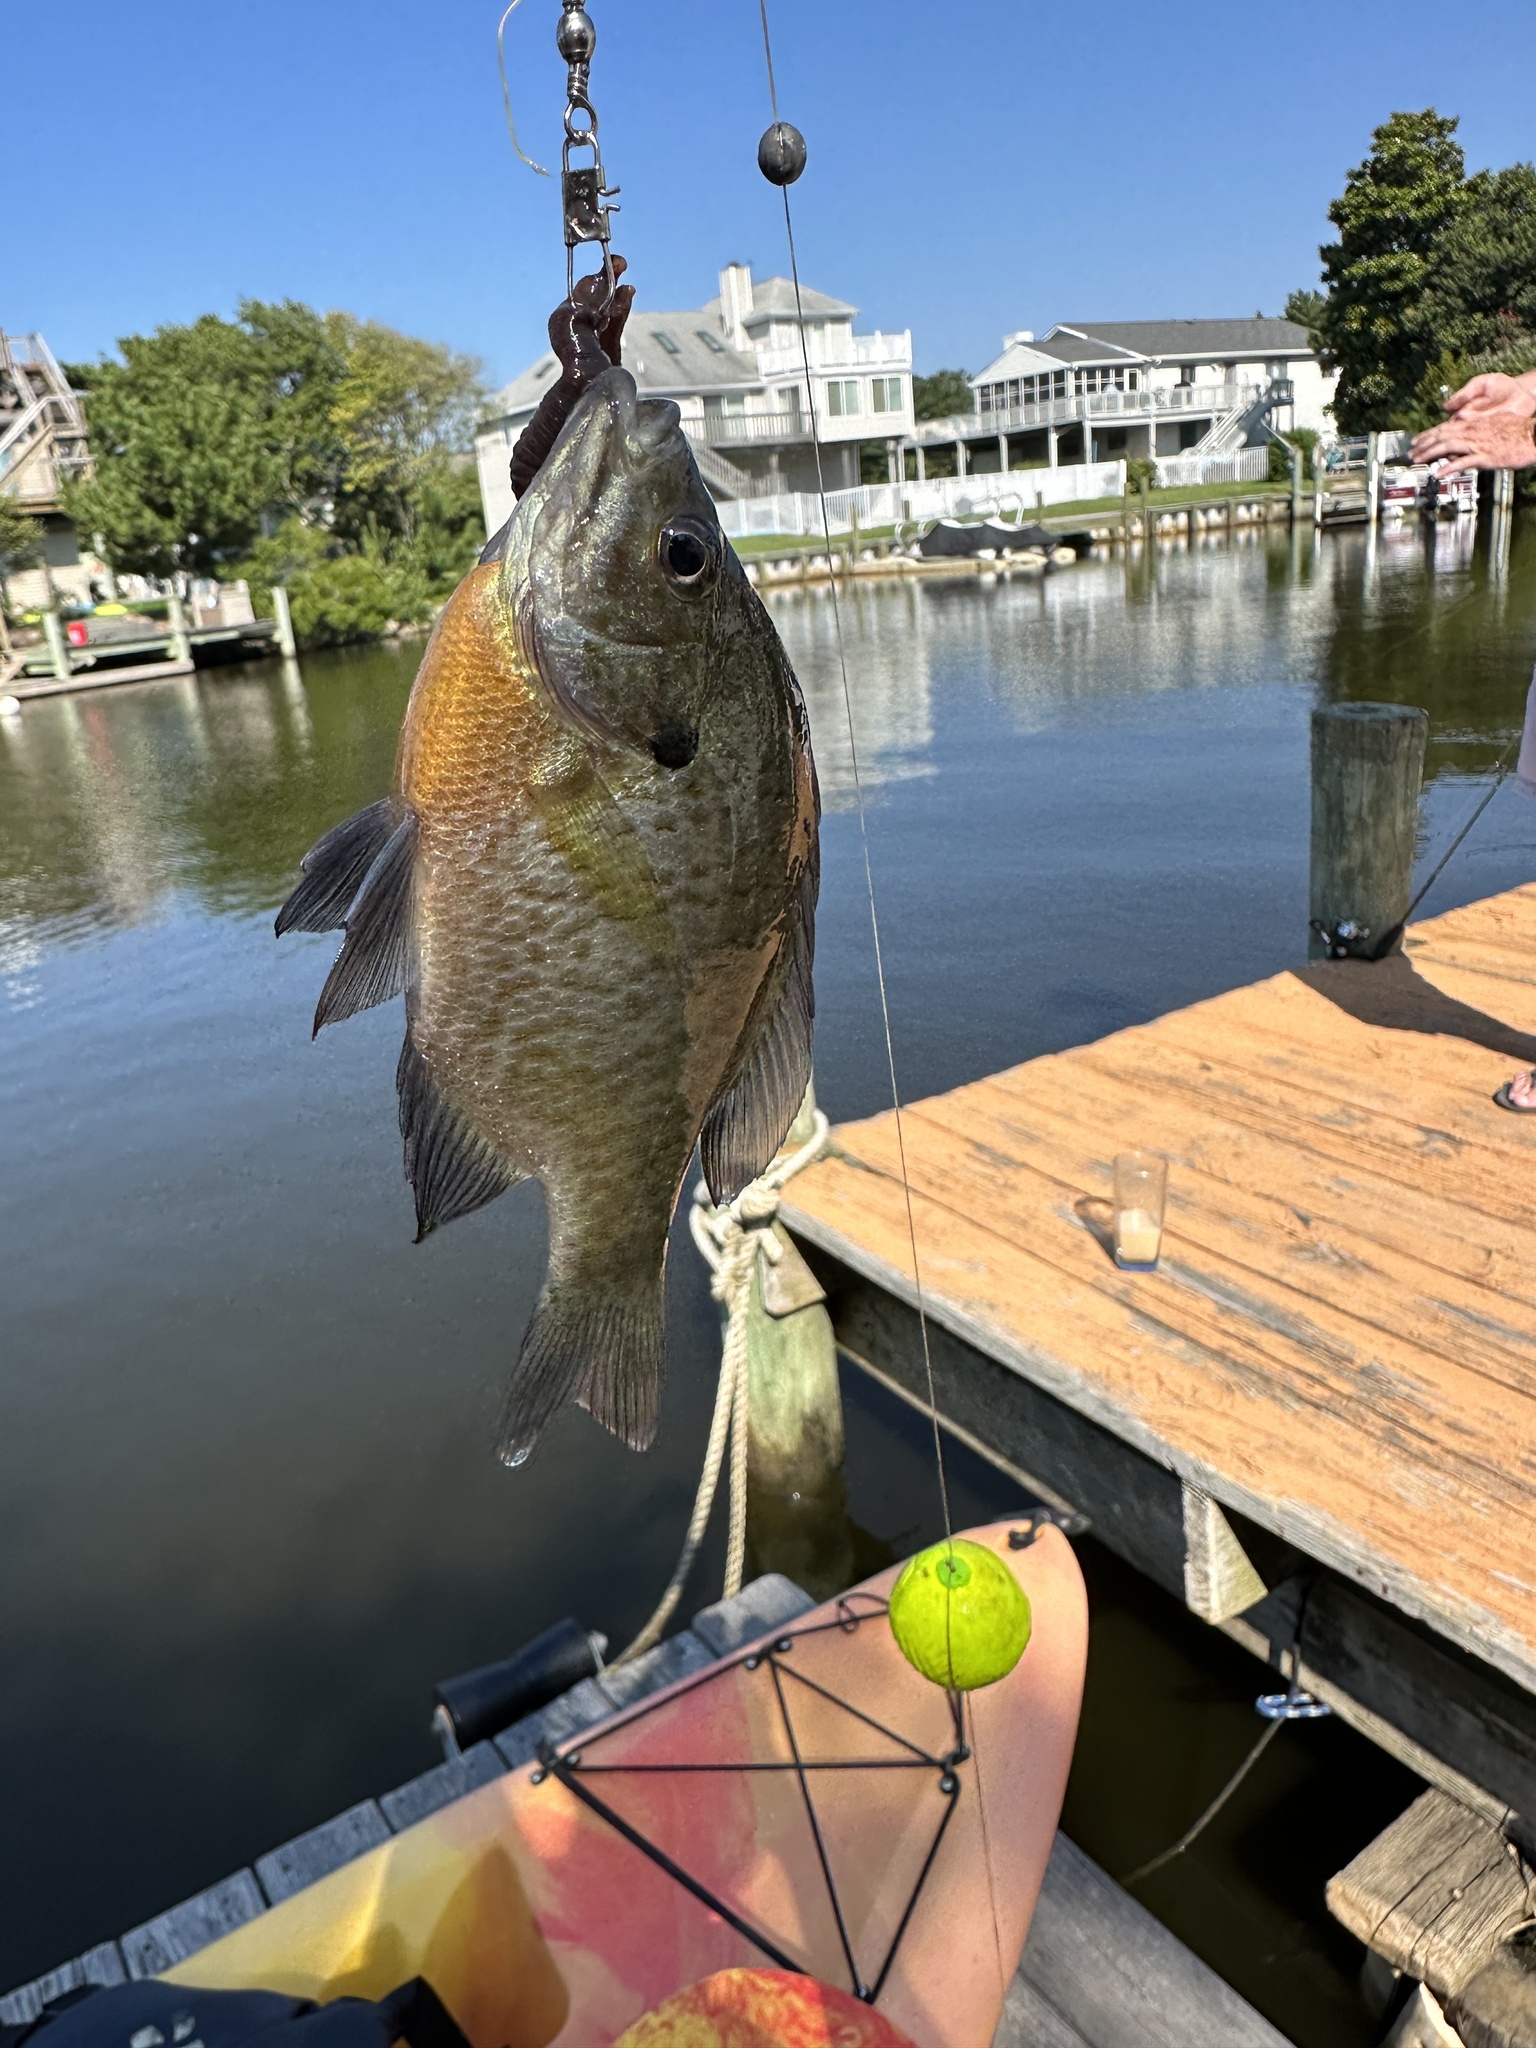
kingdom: Animalia
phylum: Chordata
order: Perciformes
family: Centrarchidae
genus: Lepomis
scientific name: Lepomis macrochirus
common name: Bluegill
